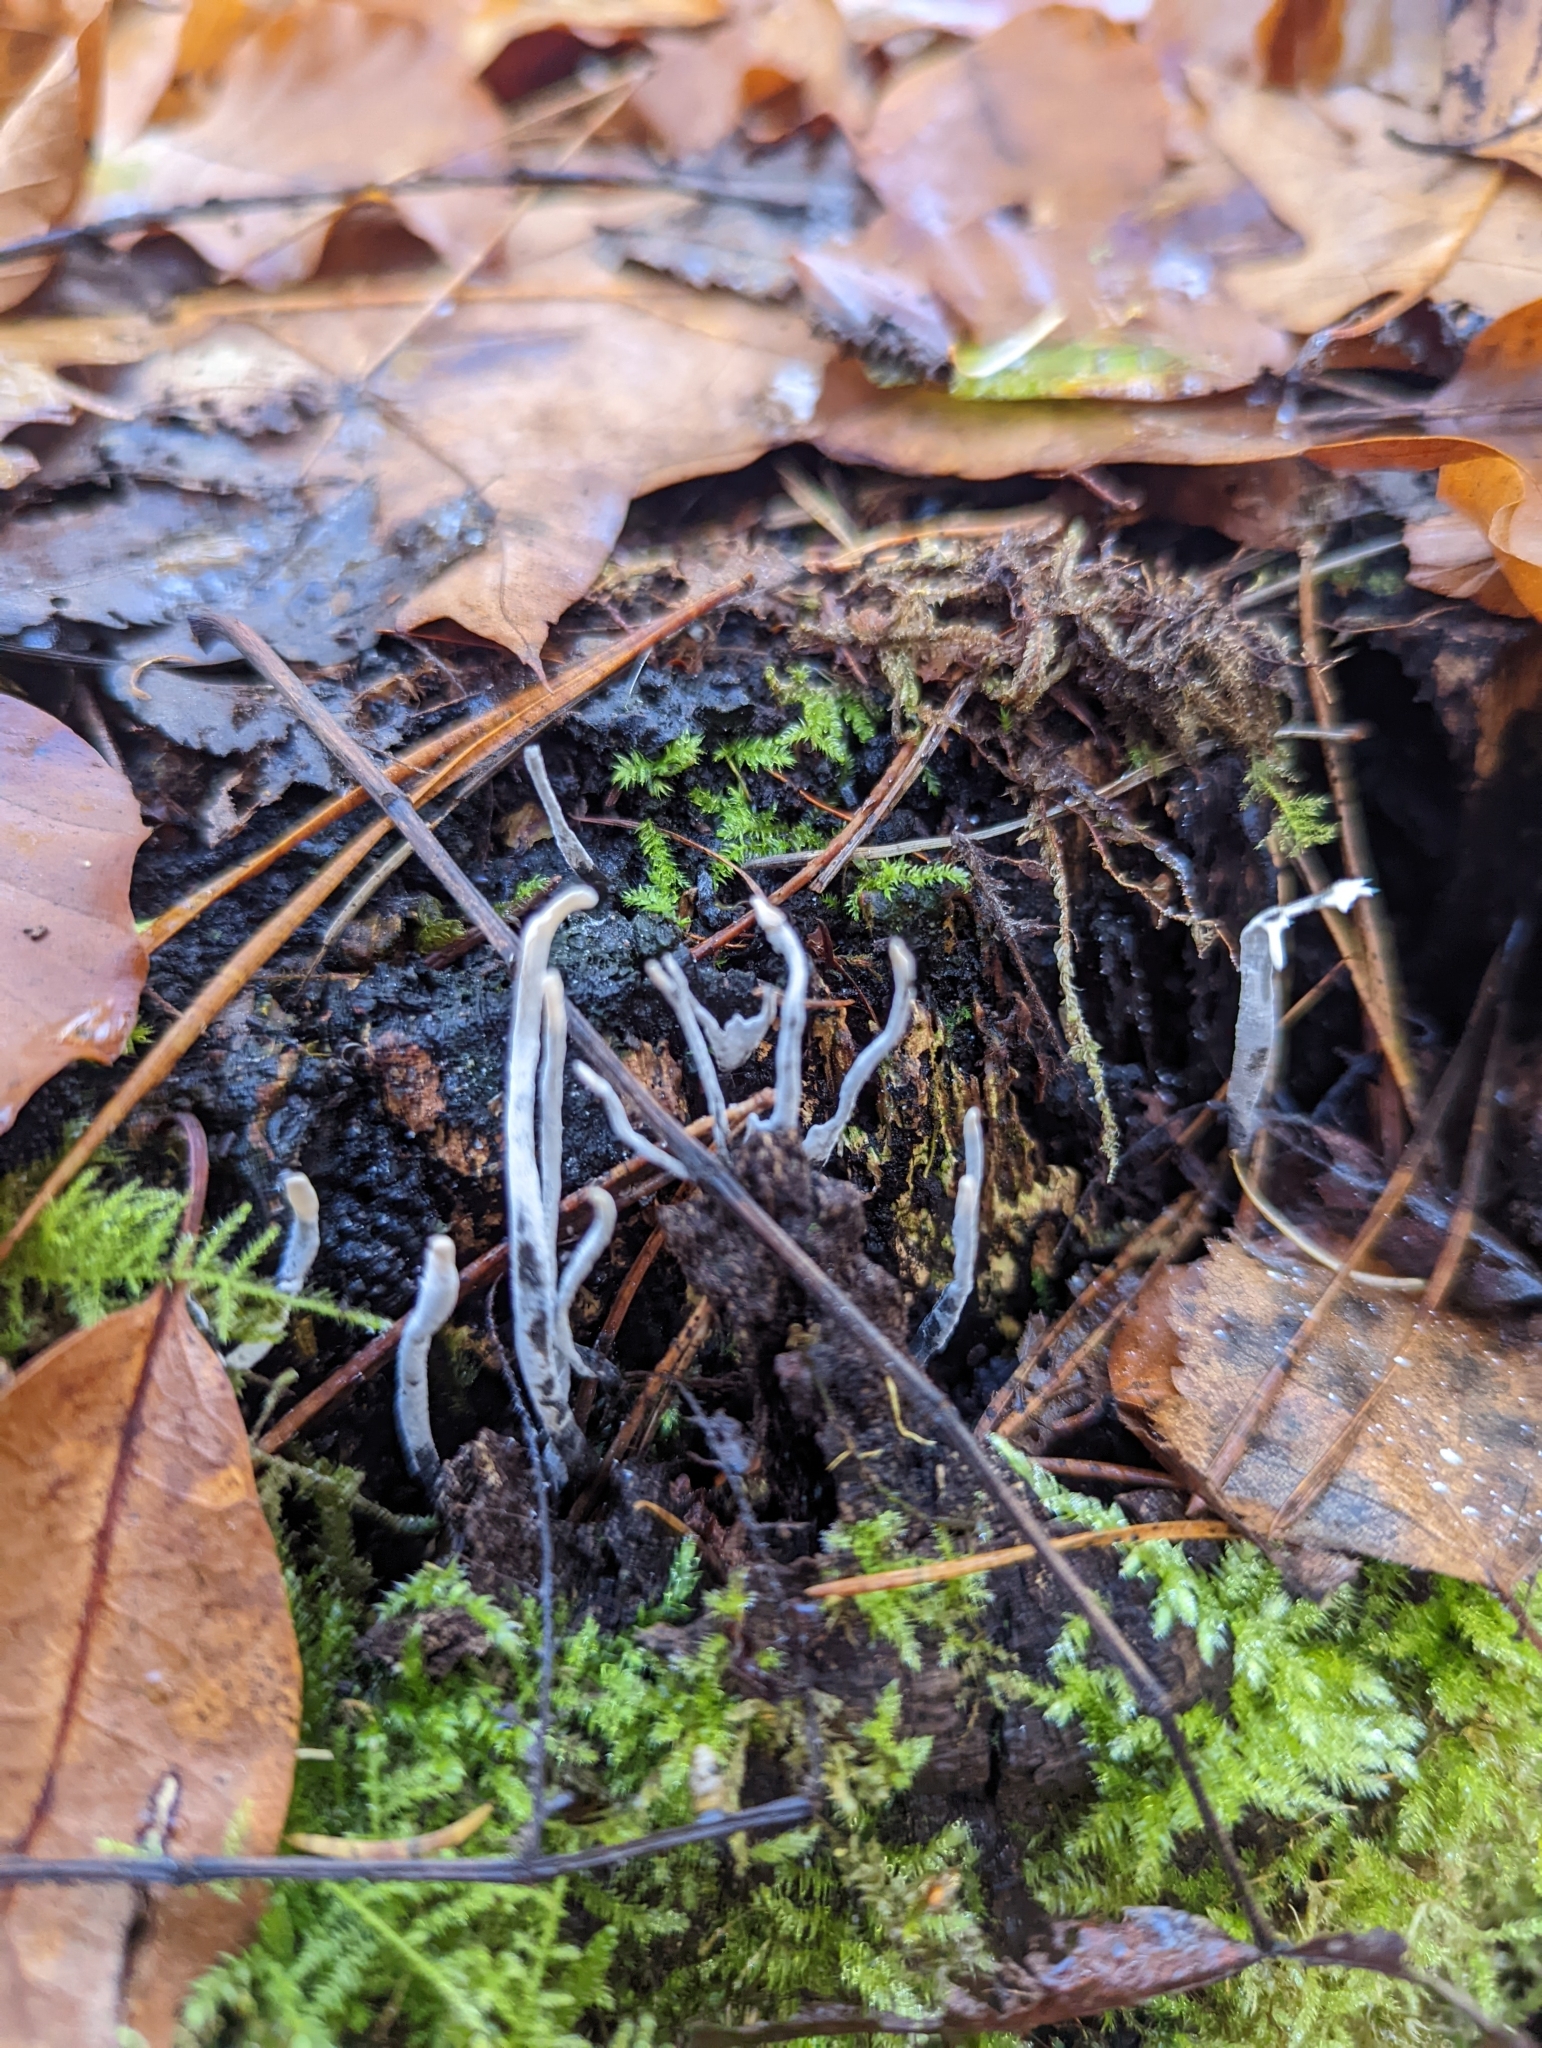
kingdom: Fungi
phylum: Ascomycota
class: Sordariomycetes
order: Xylariales
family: Xylariaceae
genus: Xylaria
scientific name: Xylaria hypoxylon
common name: Candle-snuff fungus
